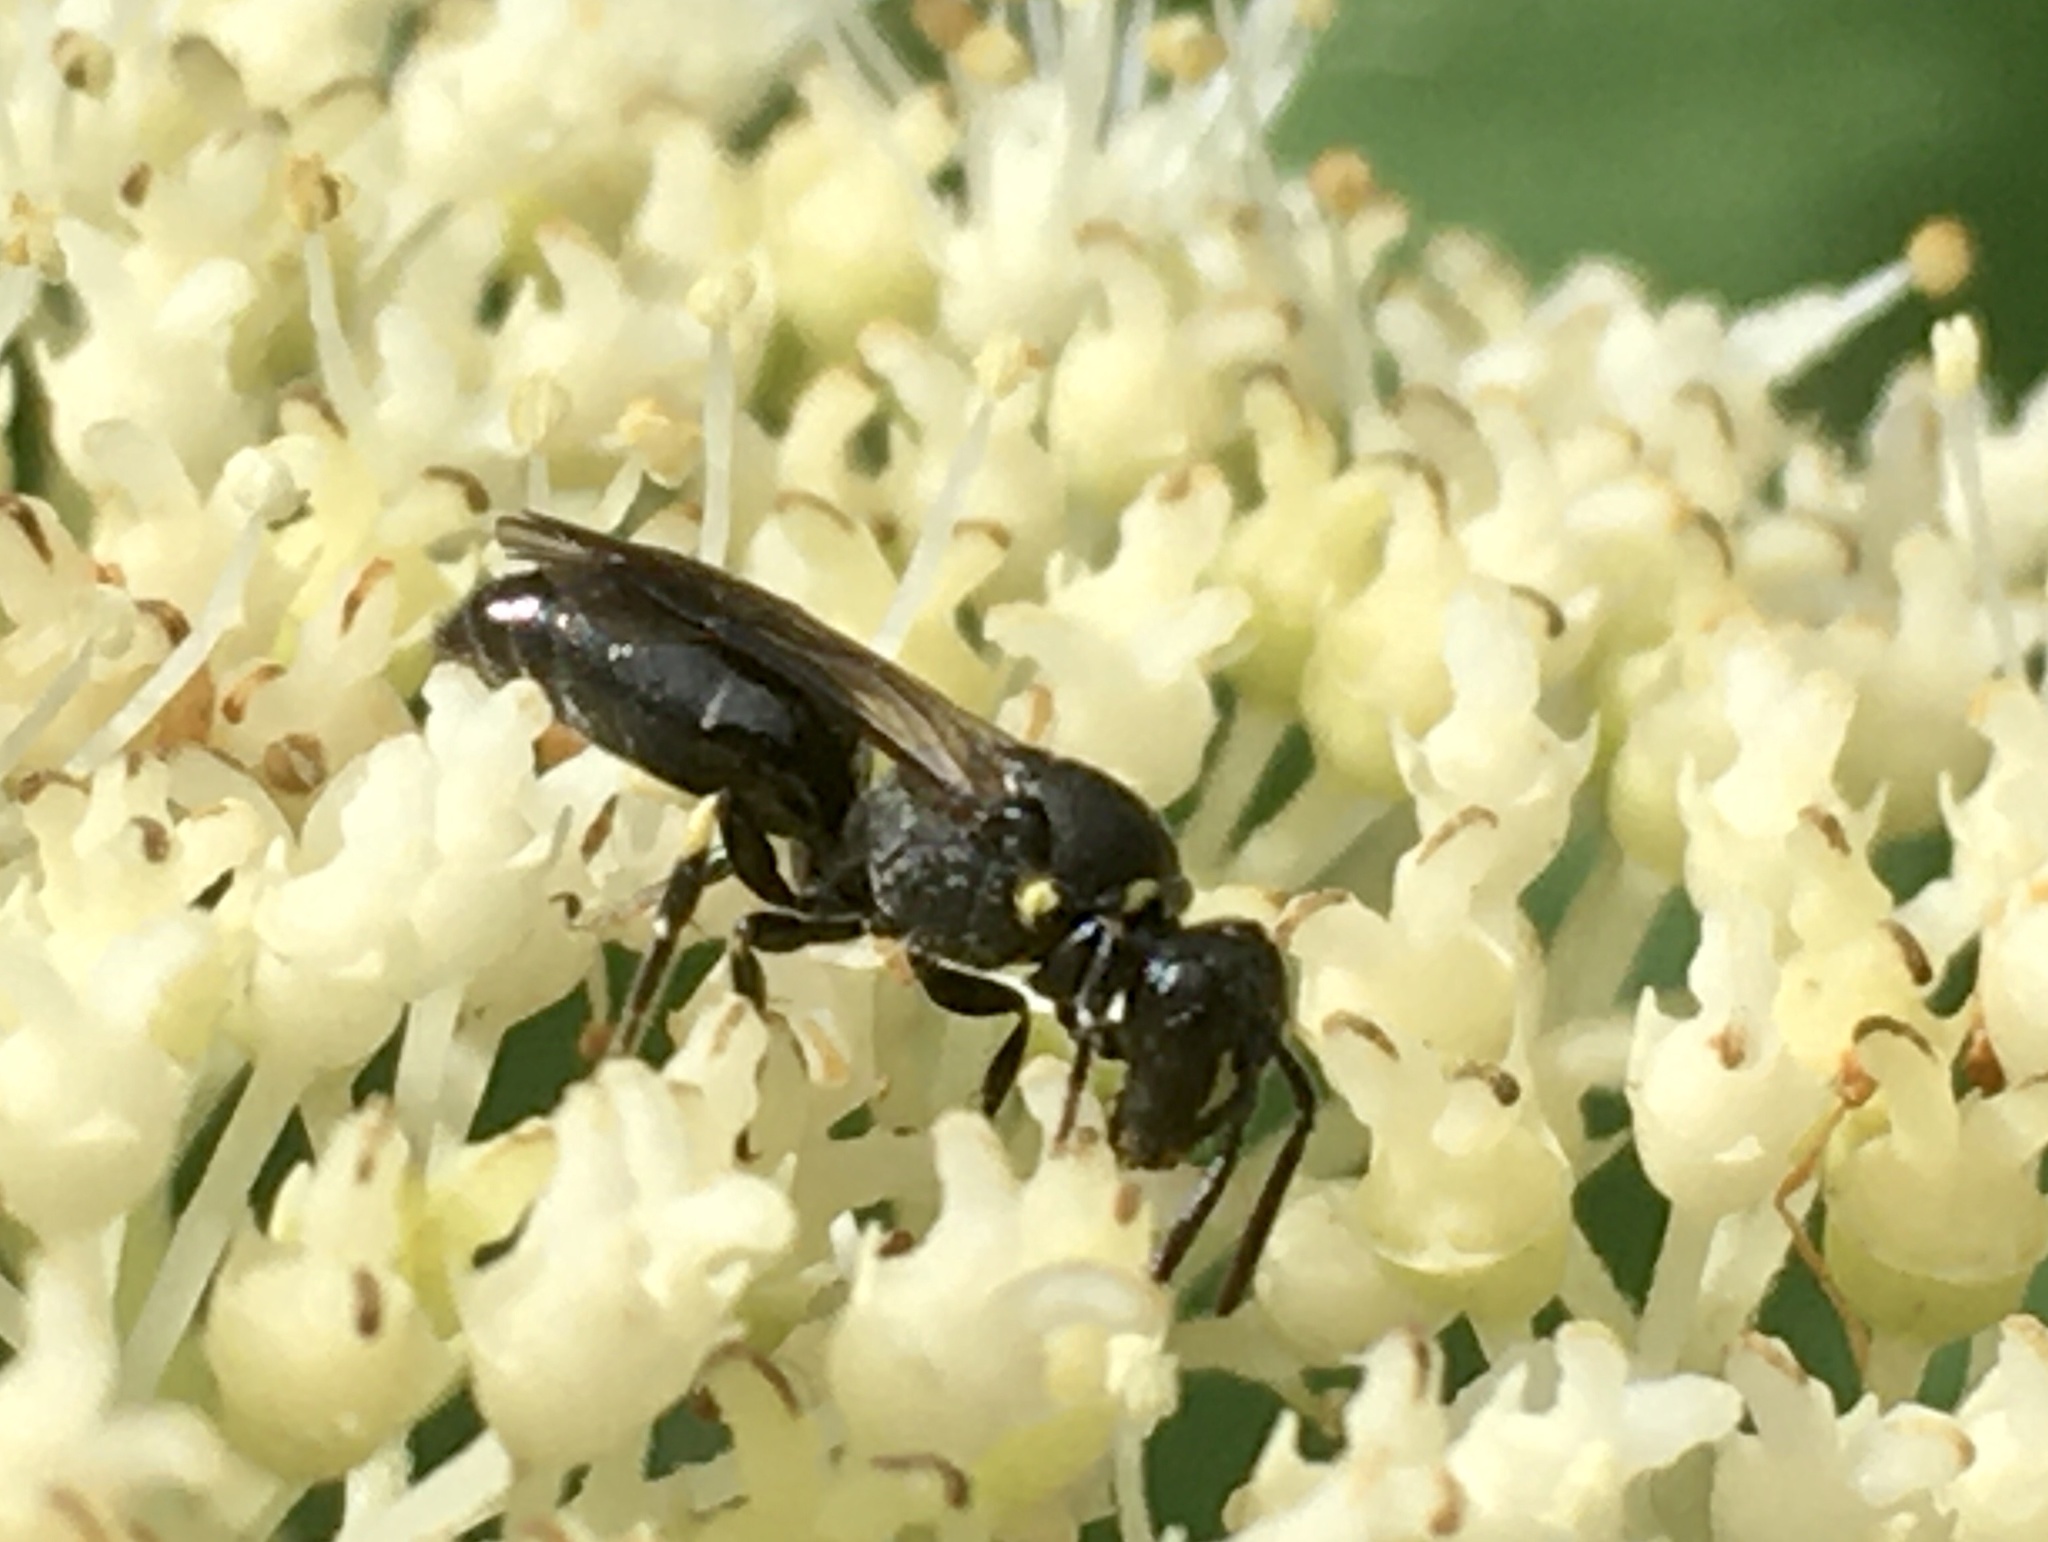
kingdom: Animalia
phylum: Arthropoda
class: Insecta
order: Hymenoptera
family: Colletidae
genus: Hylaeus
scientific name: Hylaeus modestus
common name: Yellow-faced bee
